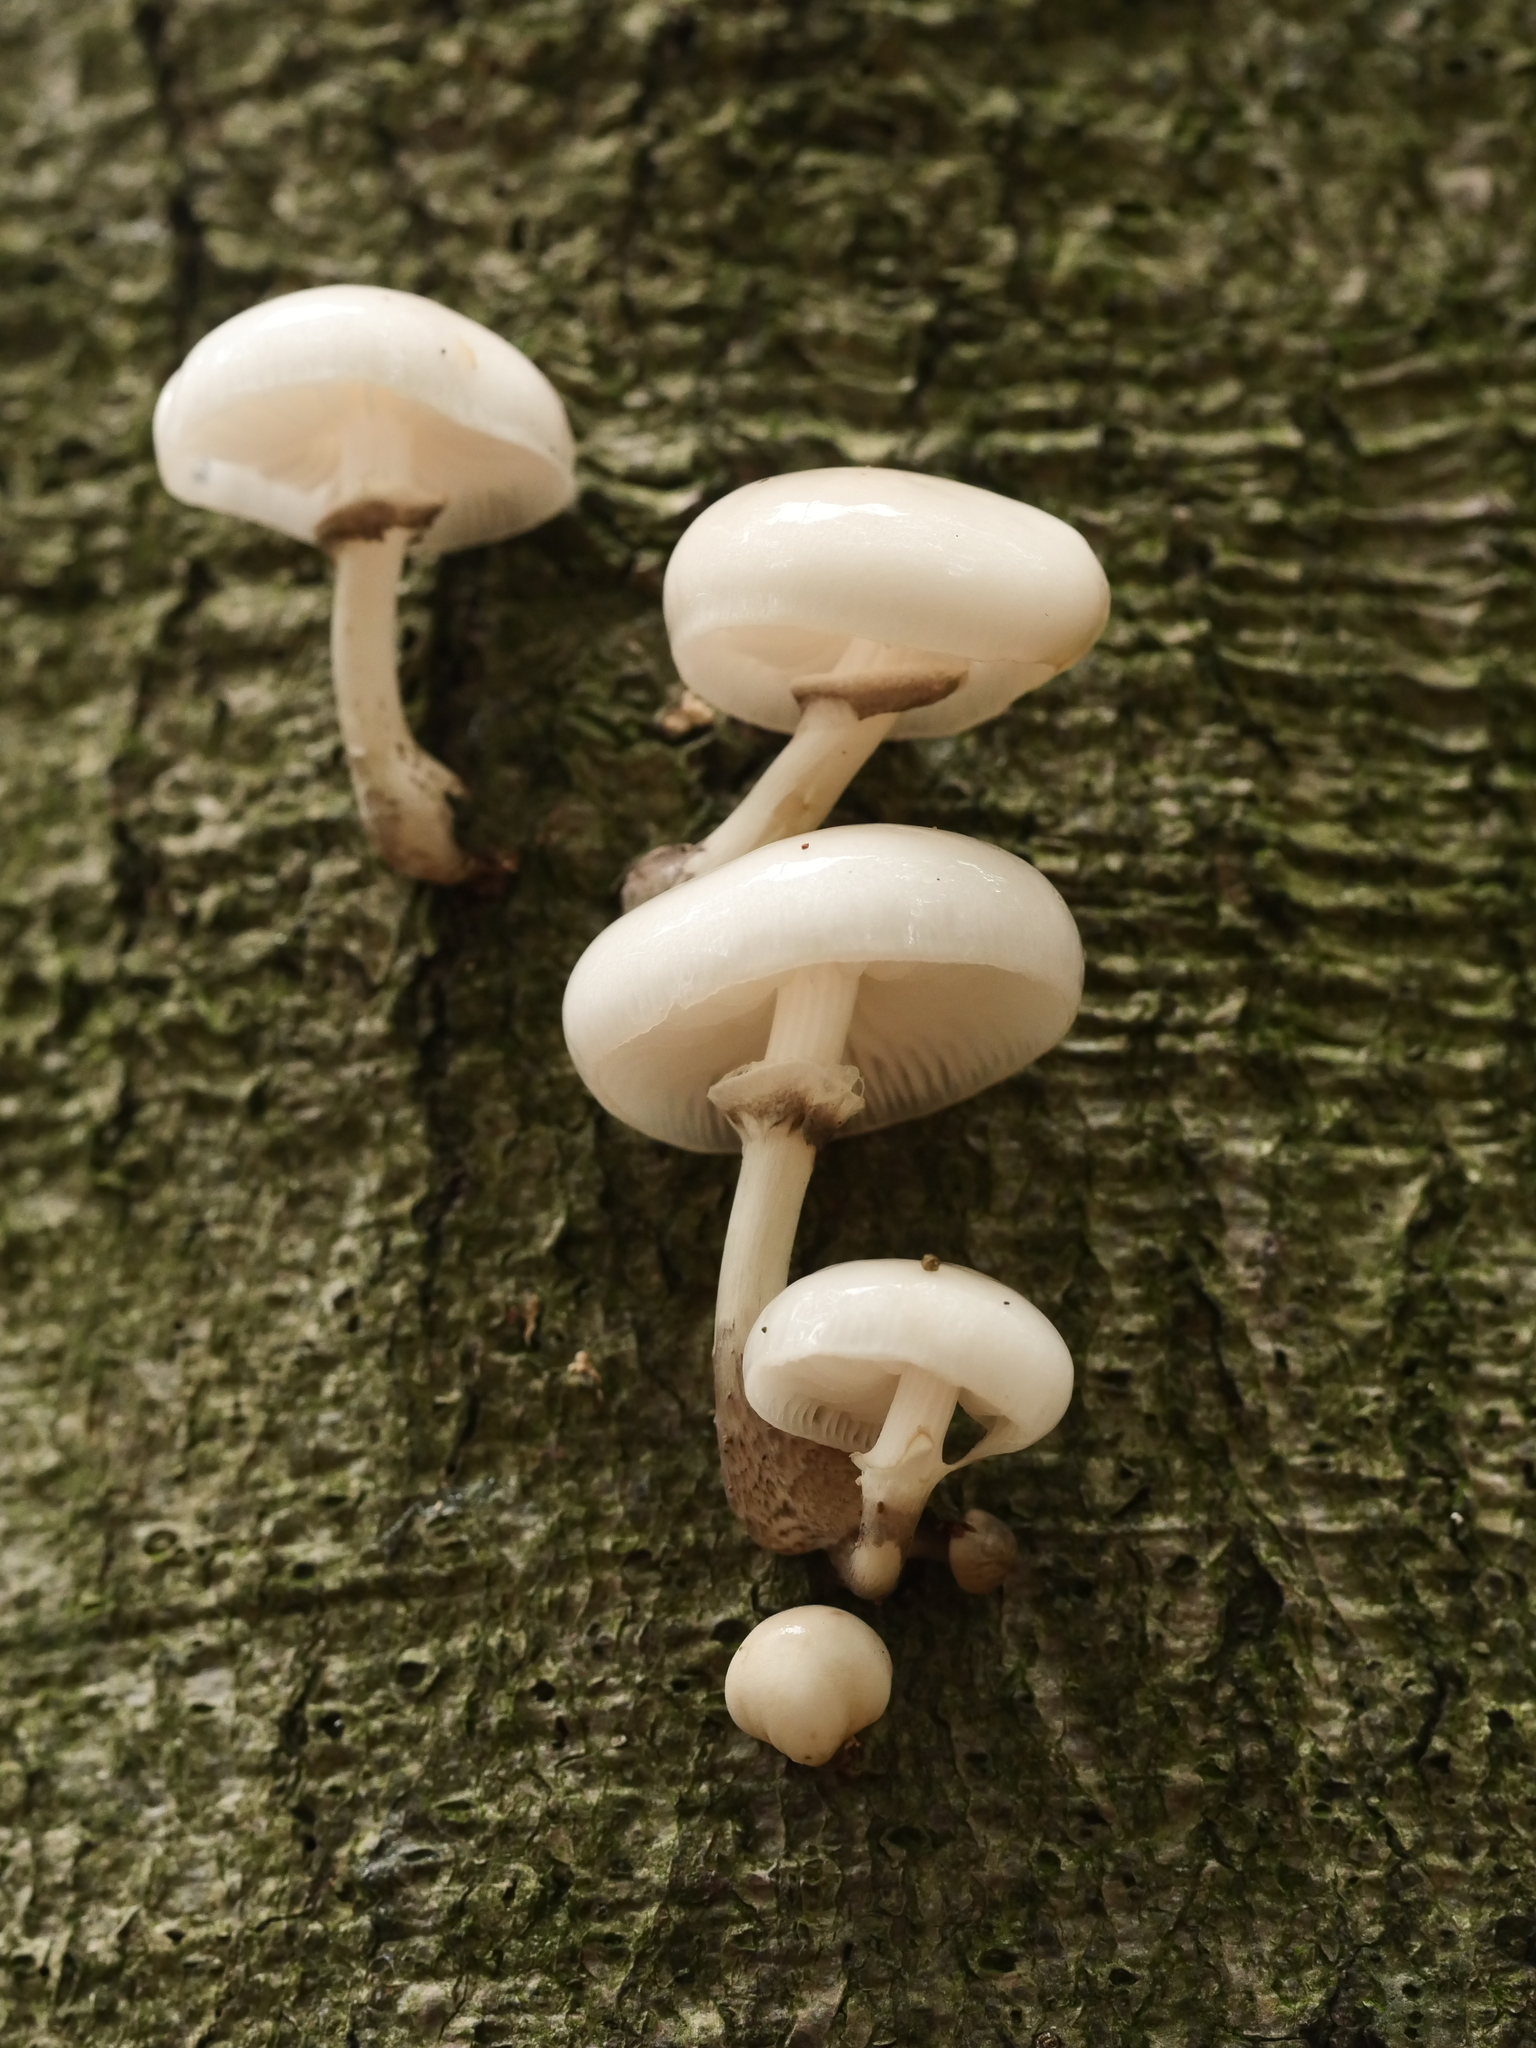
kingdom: Fungi
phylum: Basidiomycota
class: Agaricomycetes
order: Agaricales
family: Physalacriaceae
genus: Mucidula
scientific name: Mucidula mucida
